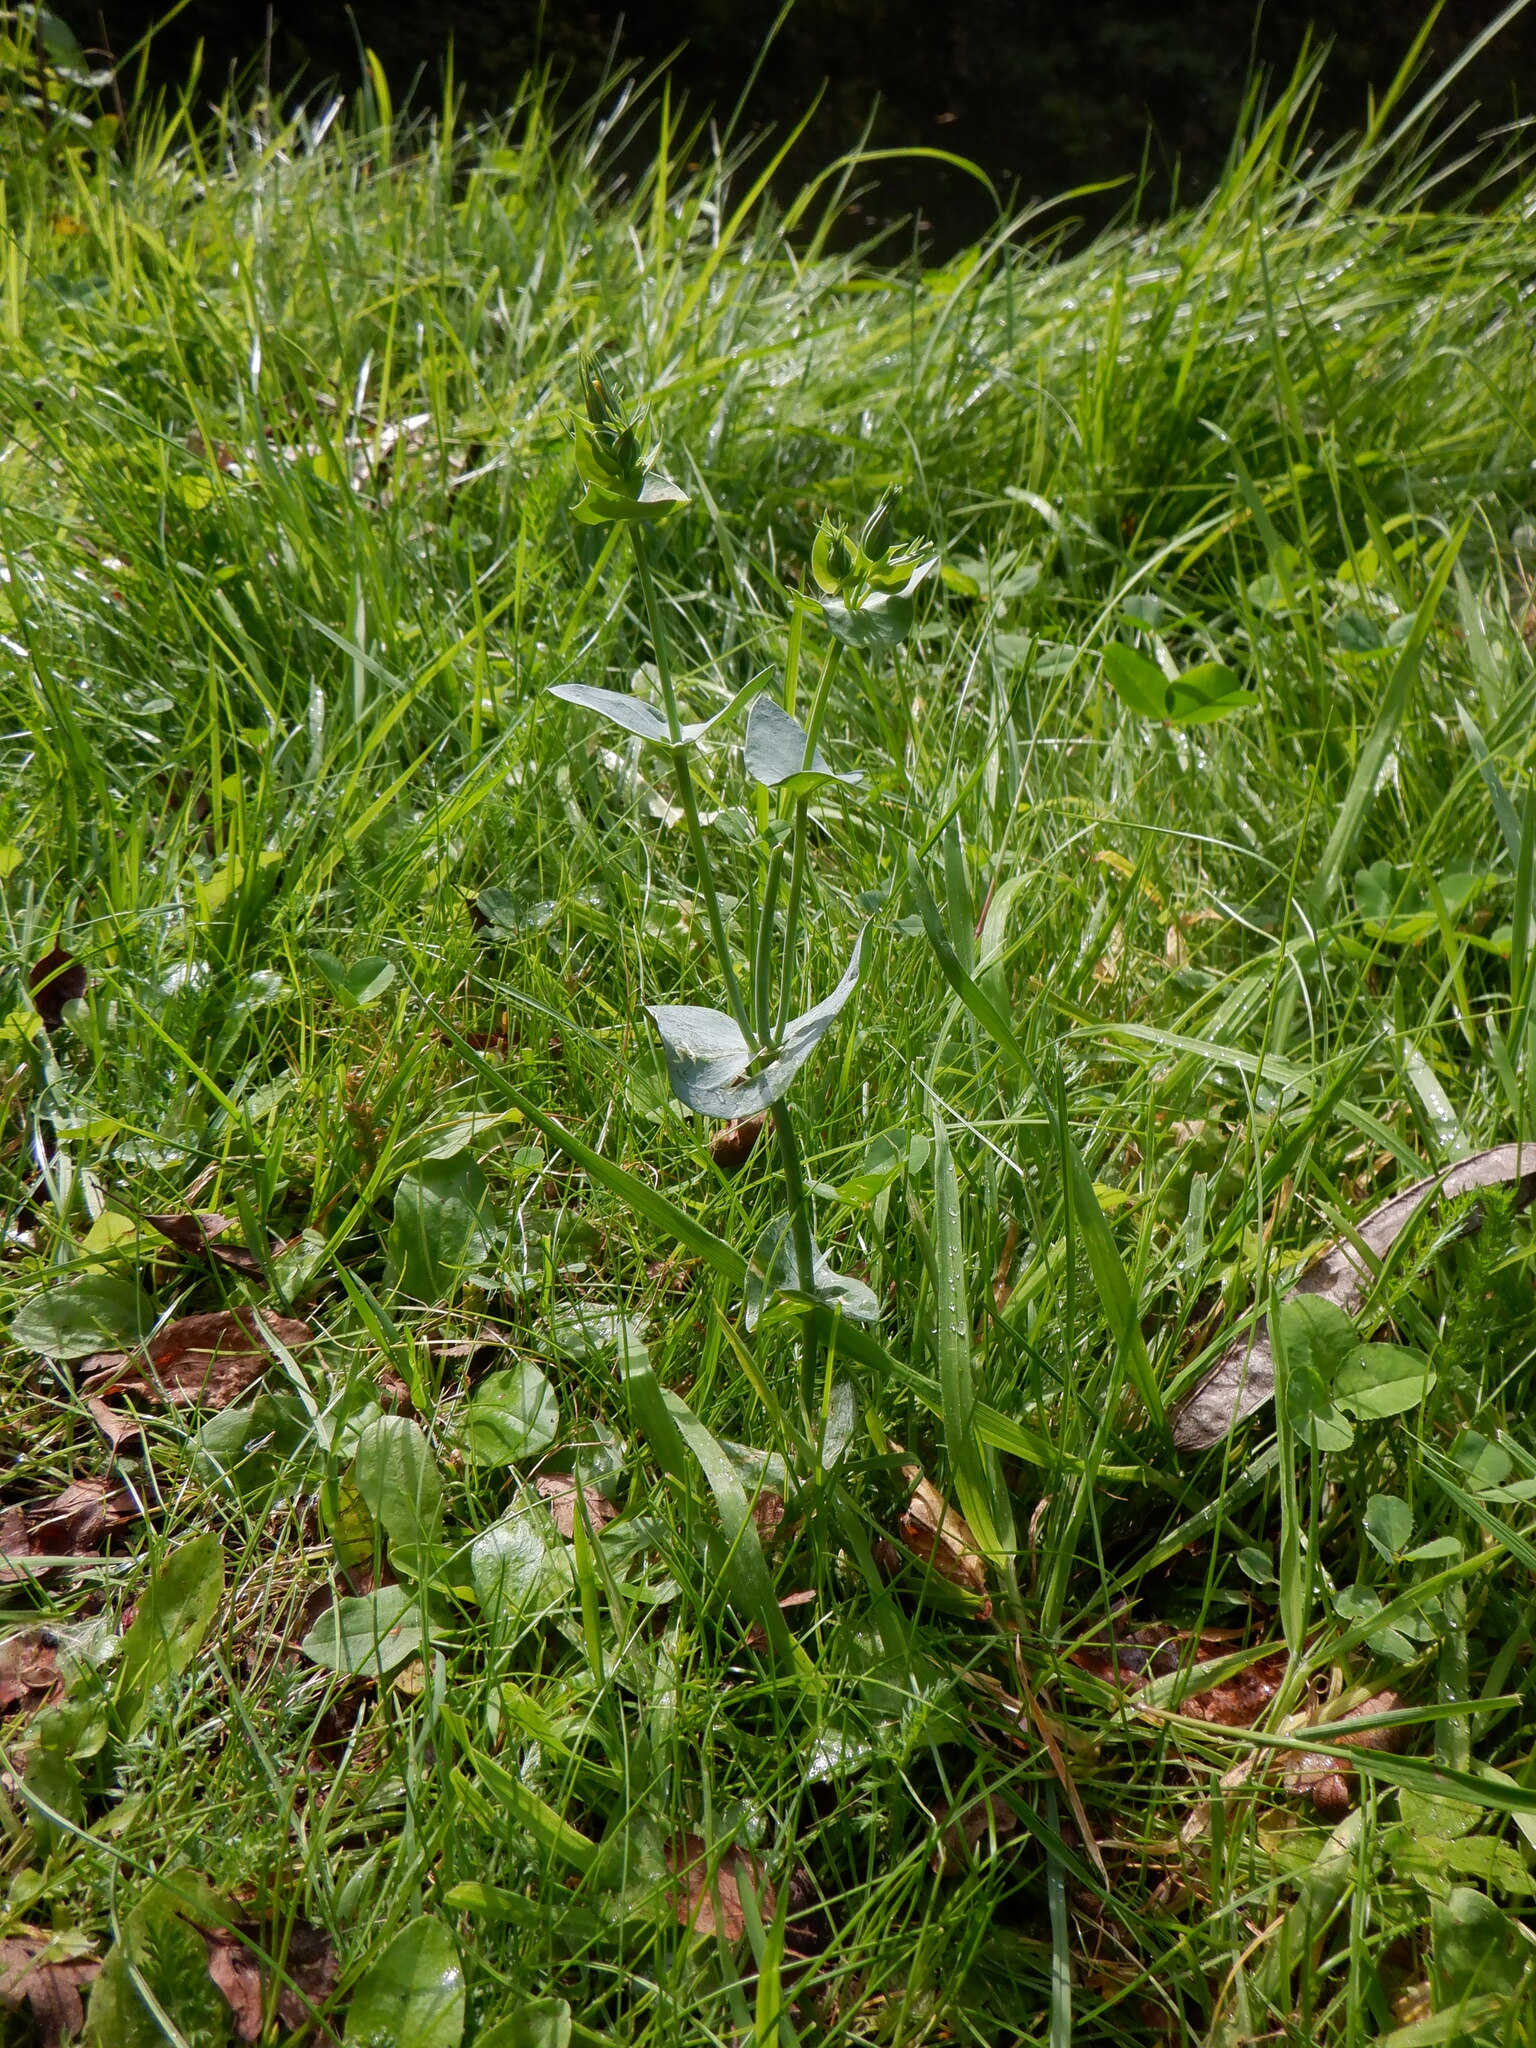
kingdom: Plantae
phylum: Tracheophyta
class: Magnoliopsida
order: Gentianales
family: Gentianaceae
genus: Blackstonia
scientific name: Blackstonia perfoliata
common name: Yellow-wort
